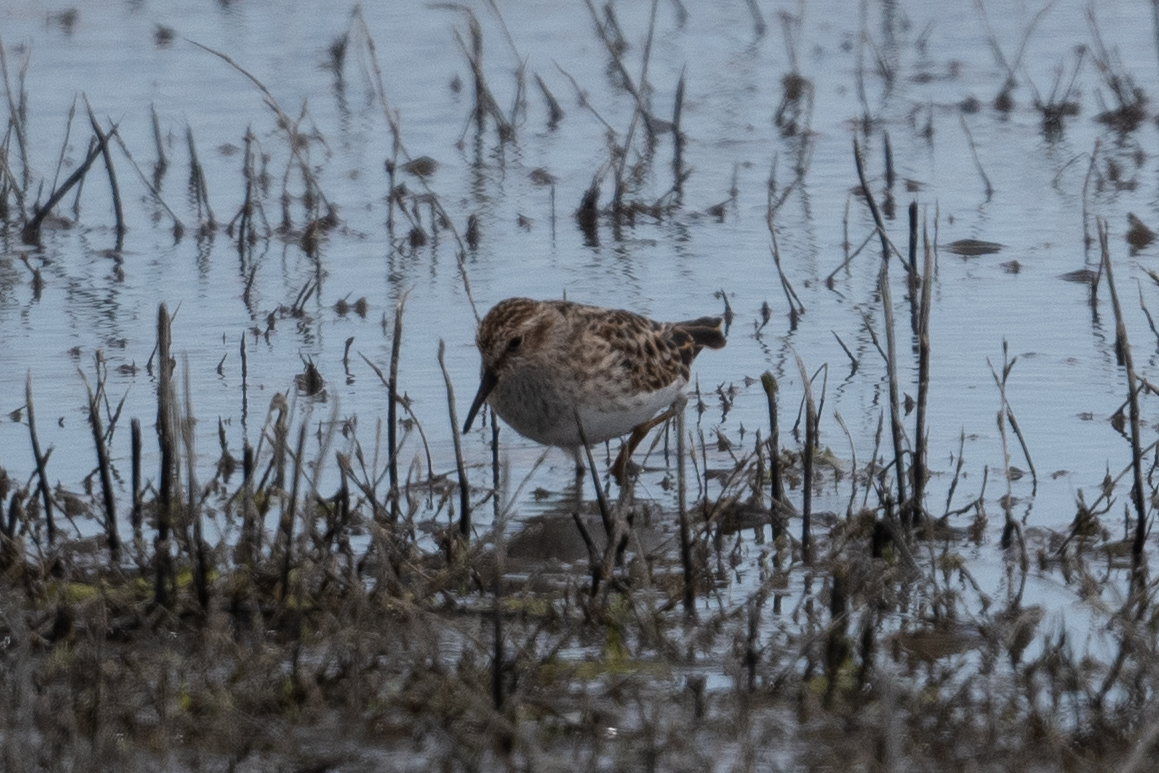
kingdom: Animalia
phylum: Chordata
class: Aves
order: Charadriiformes
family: Scolopacidae
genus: Calidris
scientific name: Calidris minutilla
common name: Least sandpiper
